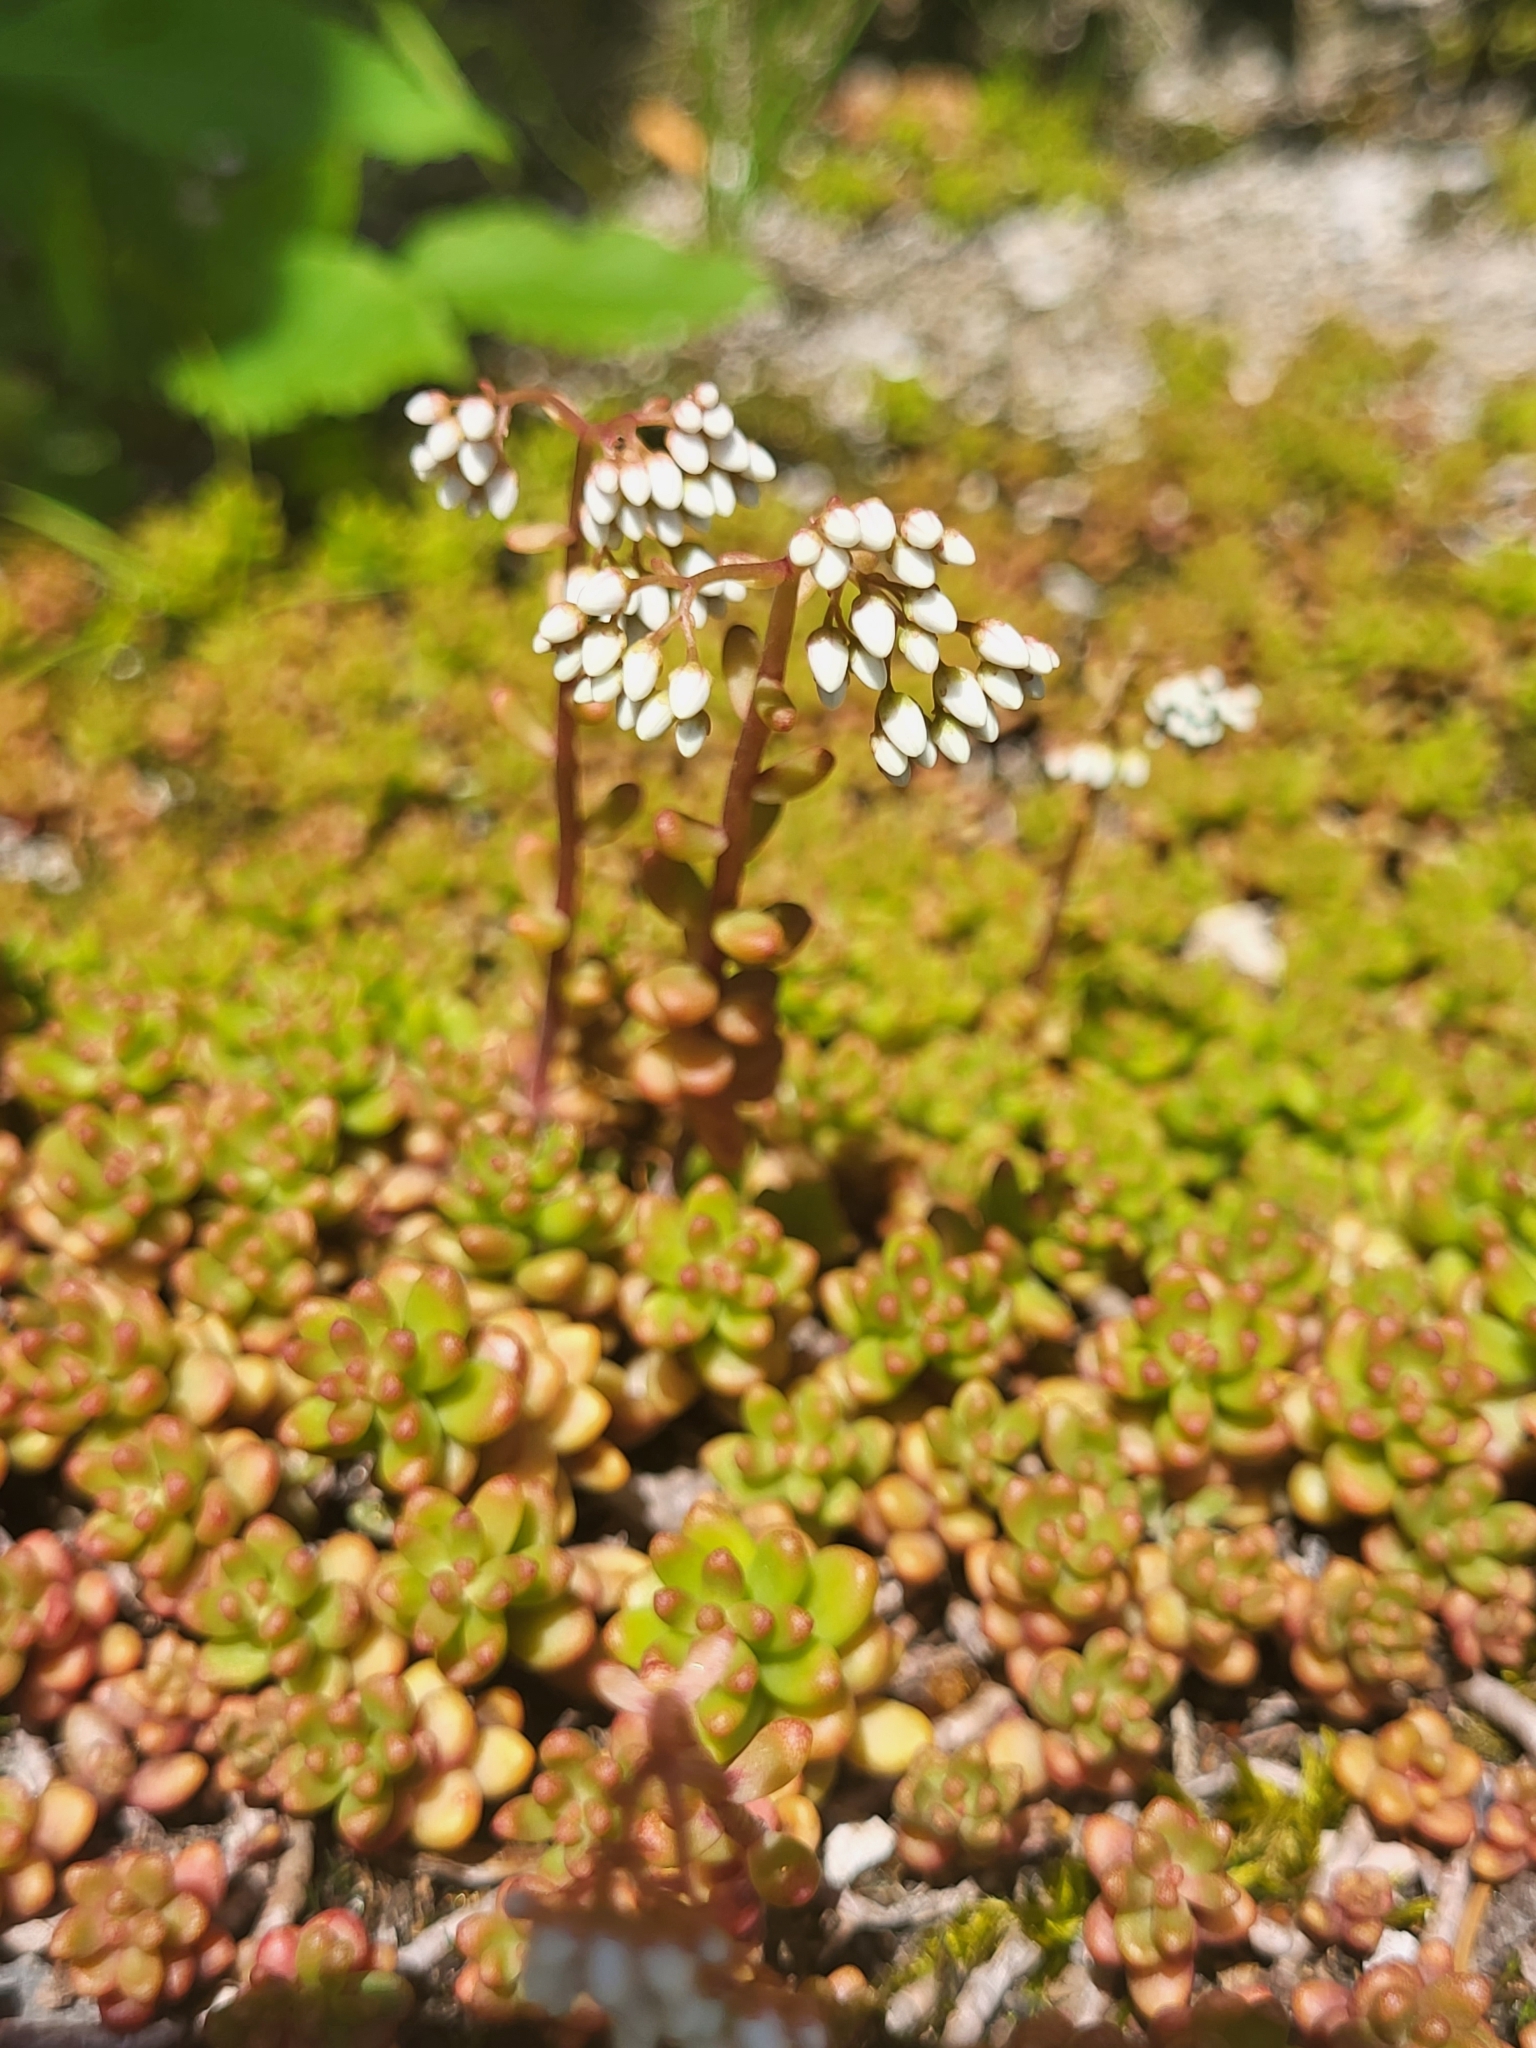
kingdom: Plantae
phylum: Tracheophyta
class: Magnoliopsida
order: Saxifragales
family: Crassulaceae
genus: Sedum
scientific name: Sedum album
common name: White stonecrop
